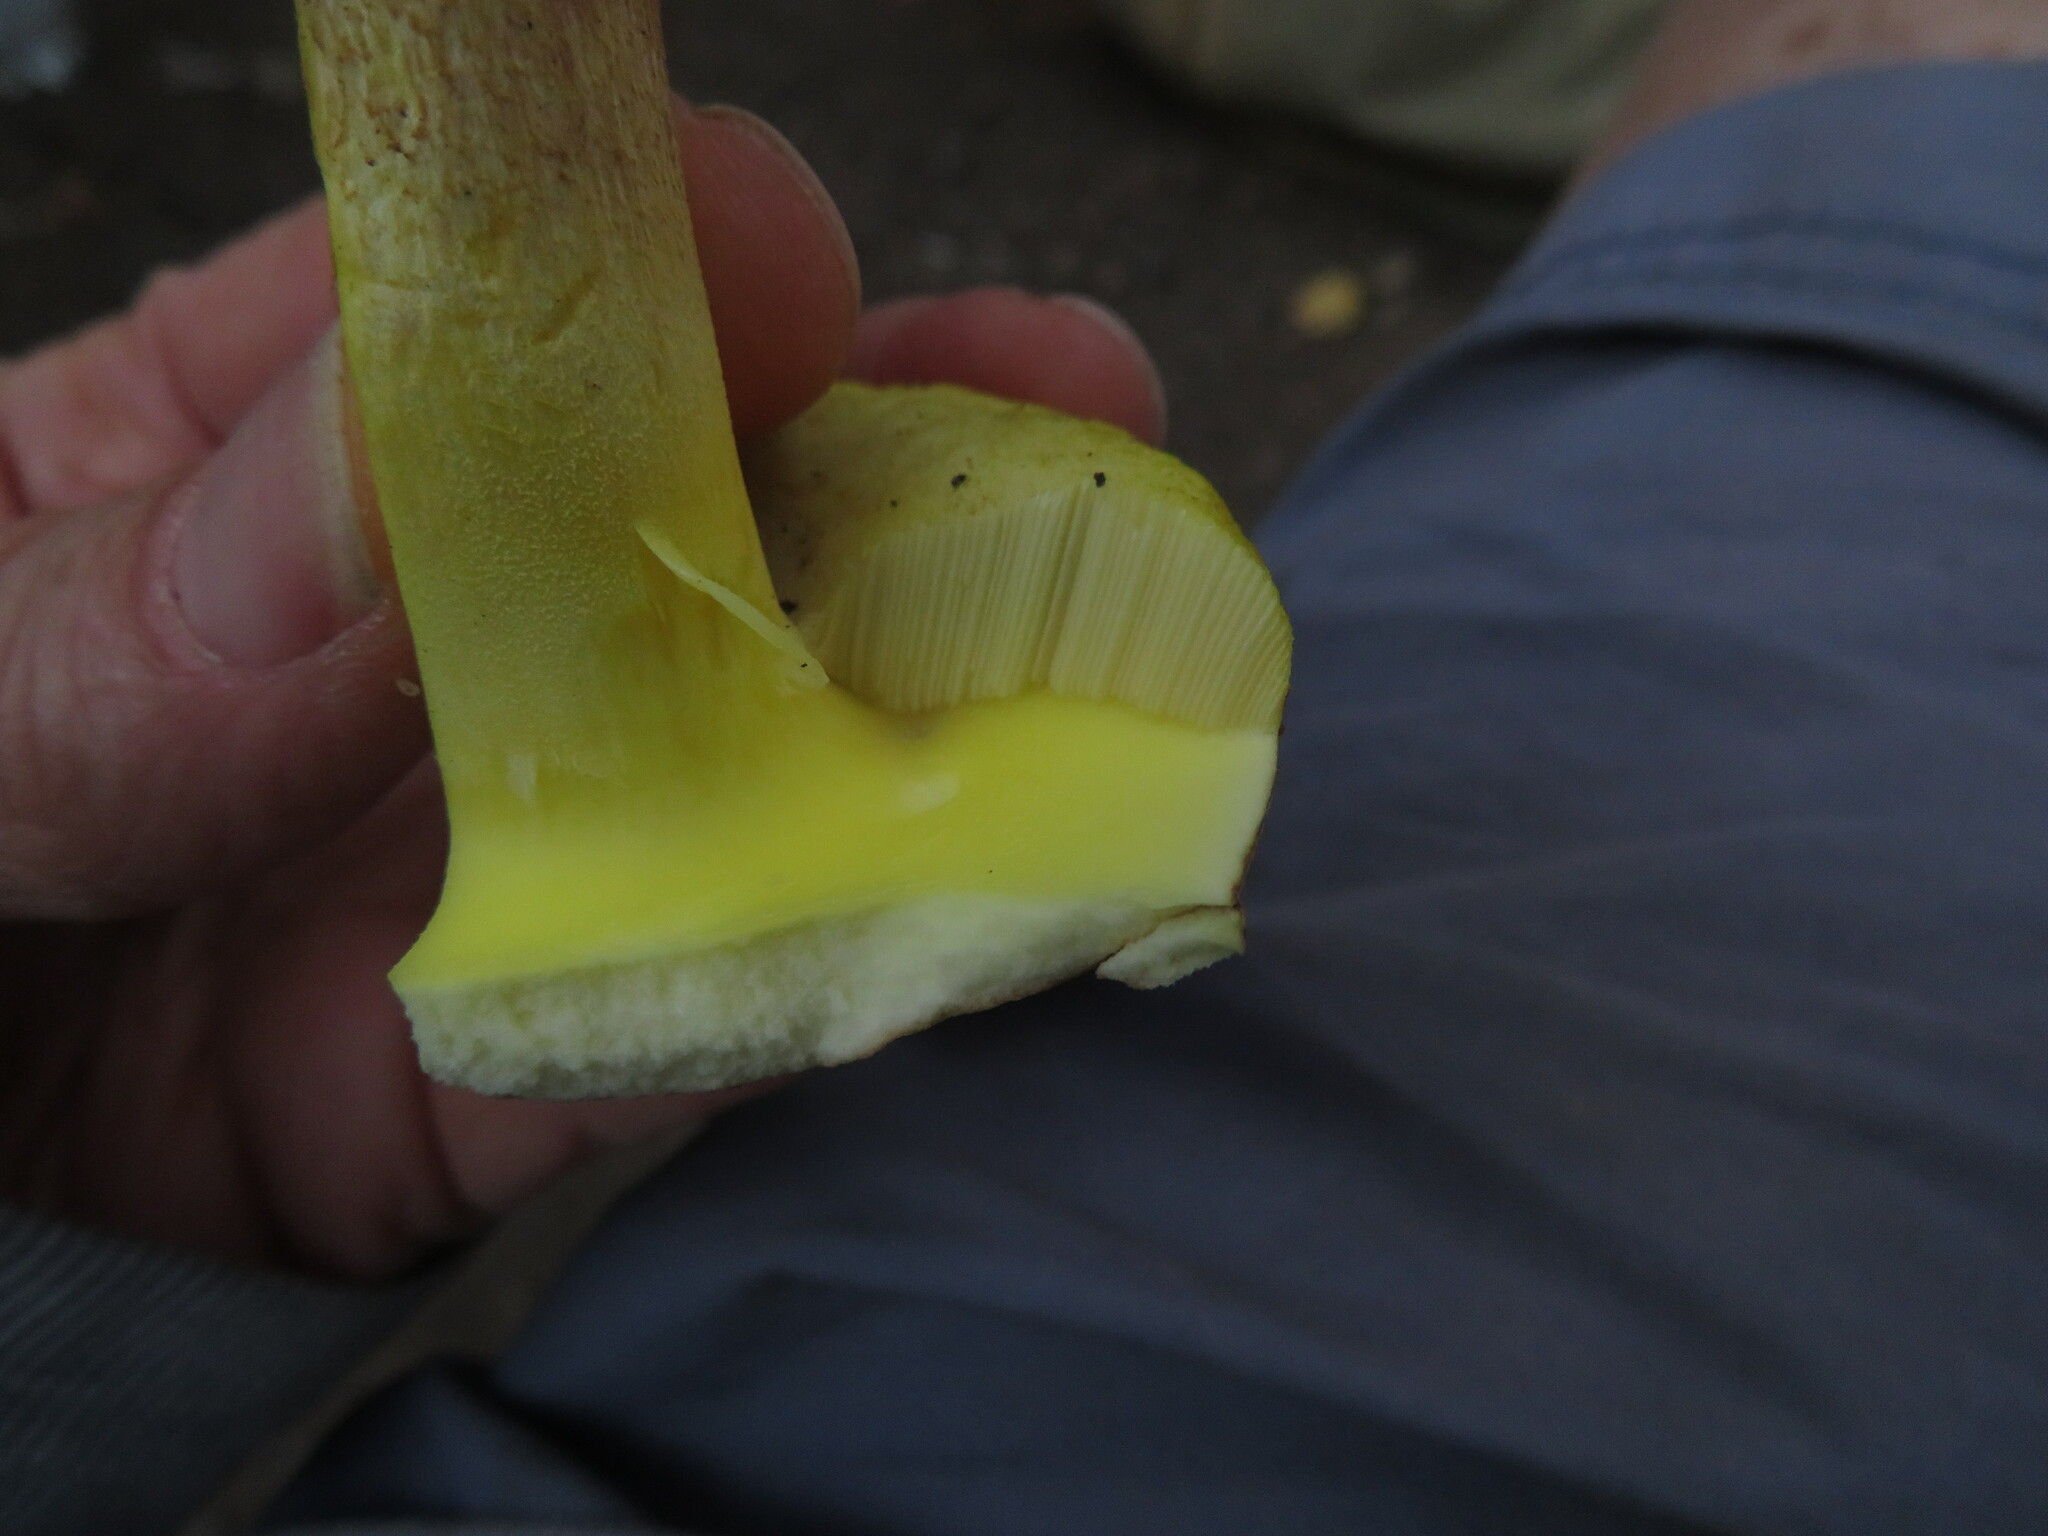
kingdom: Fungi
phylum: Basidiomycota
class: Agaricomycetes
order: Boletales
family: Boletaceae
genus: Hemileccinum
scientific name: Hemileccinum subglabripes
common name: Smoothish-stemmed bolete
